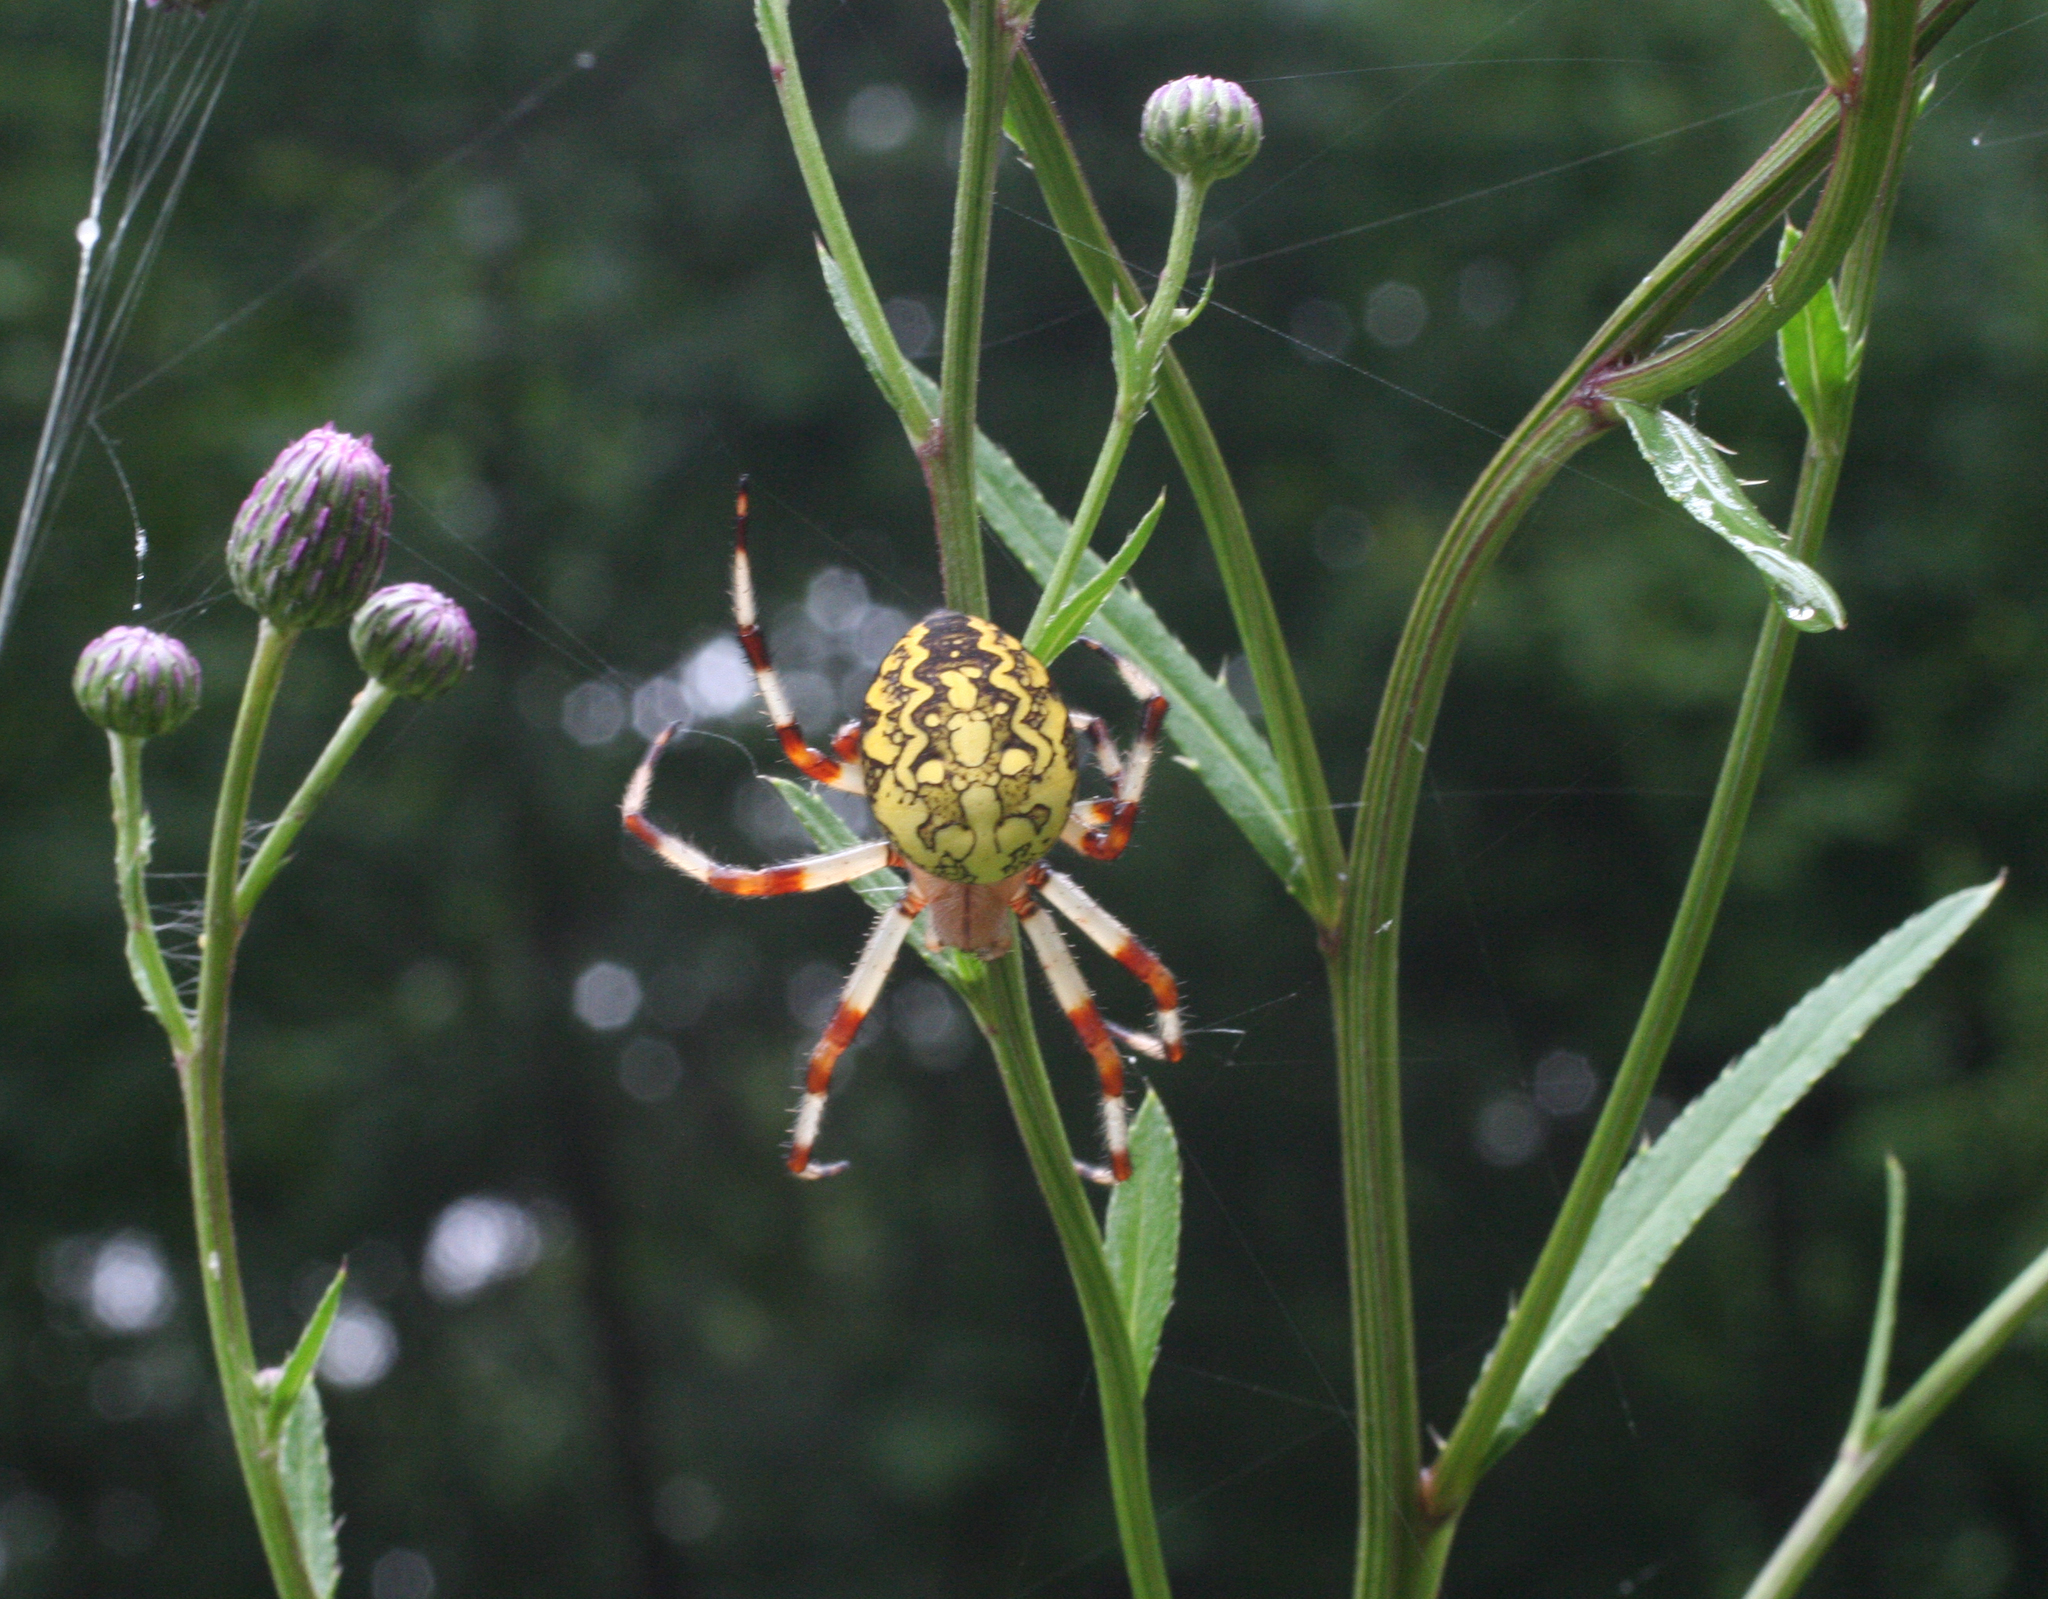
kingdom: Animalia
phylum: Arthropoda
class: Arachnida
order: Araneae
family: Araneidae
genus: Araneus
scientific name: Araneus marmoreus
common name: Marbled orbweaver
